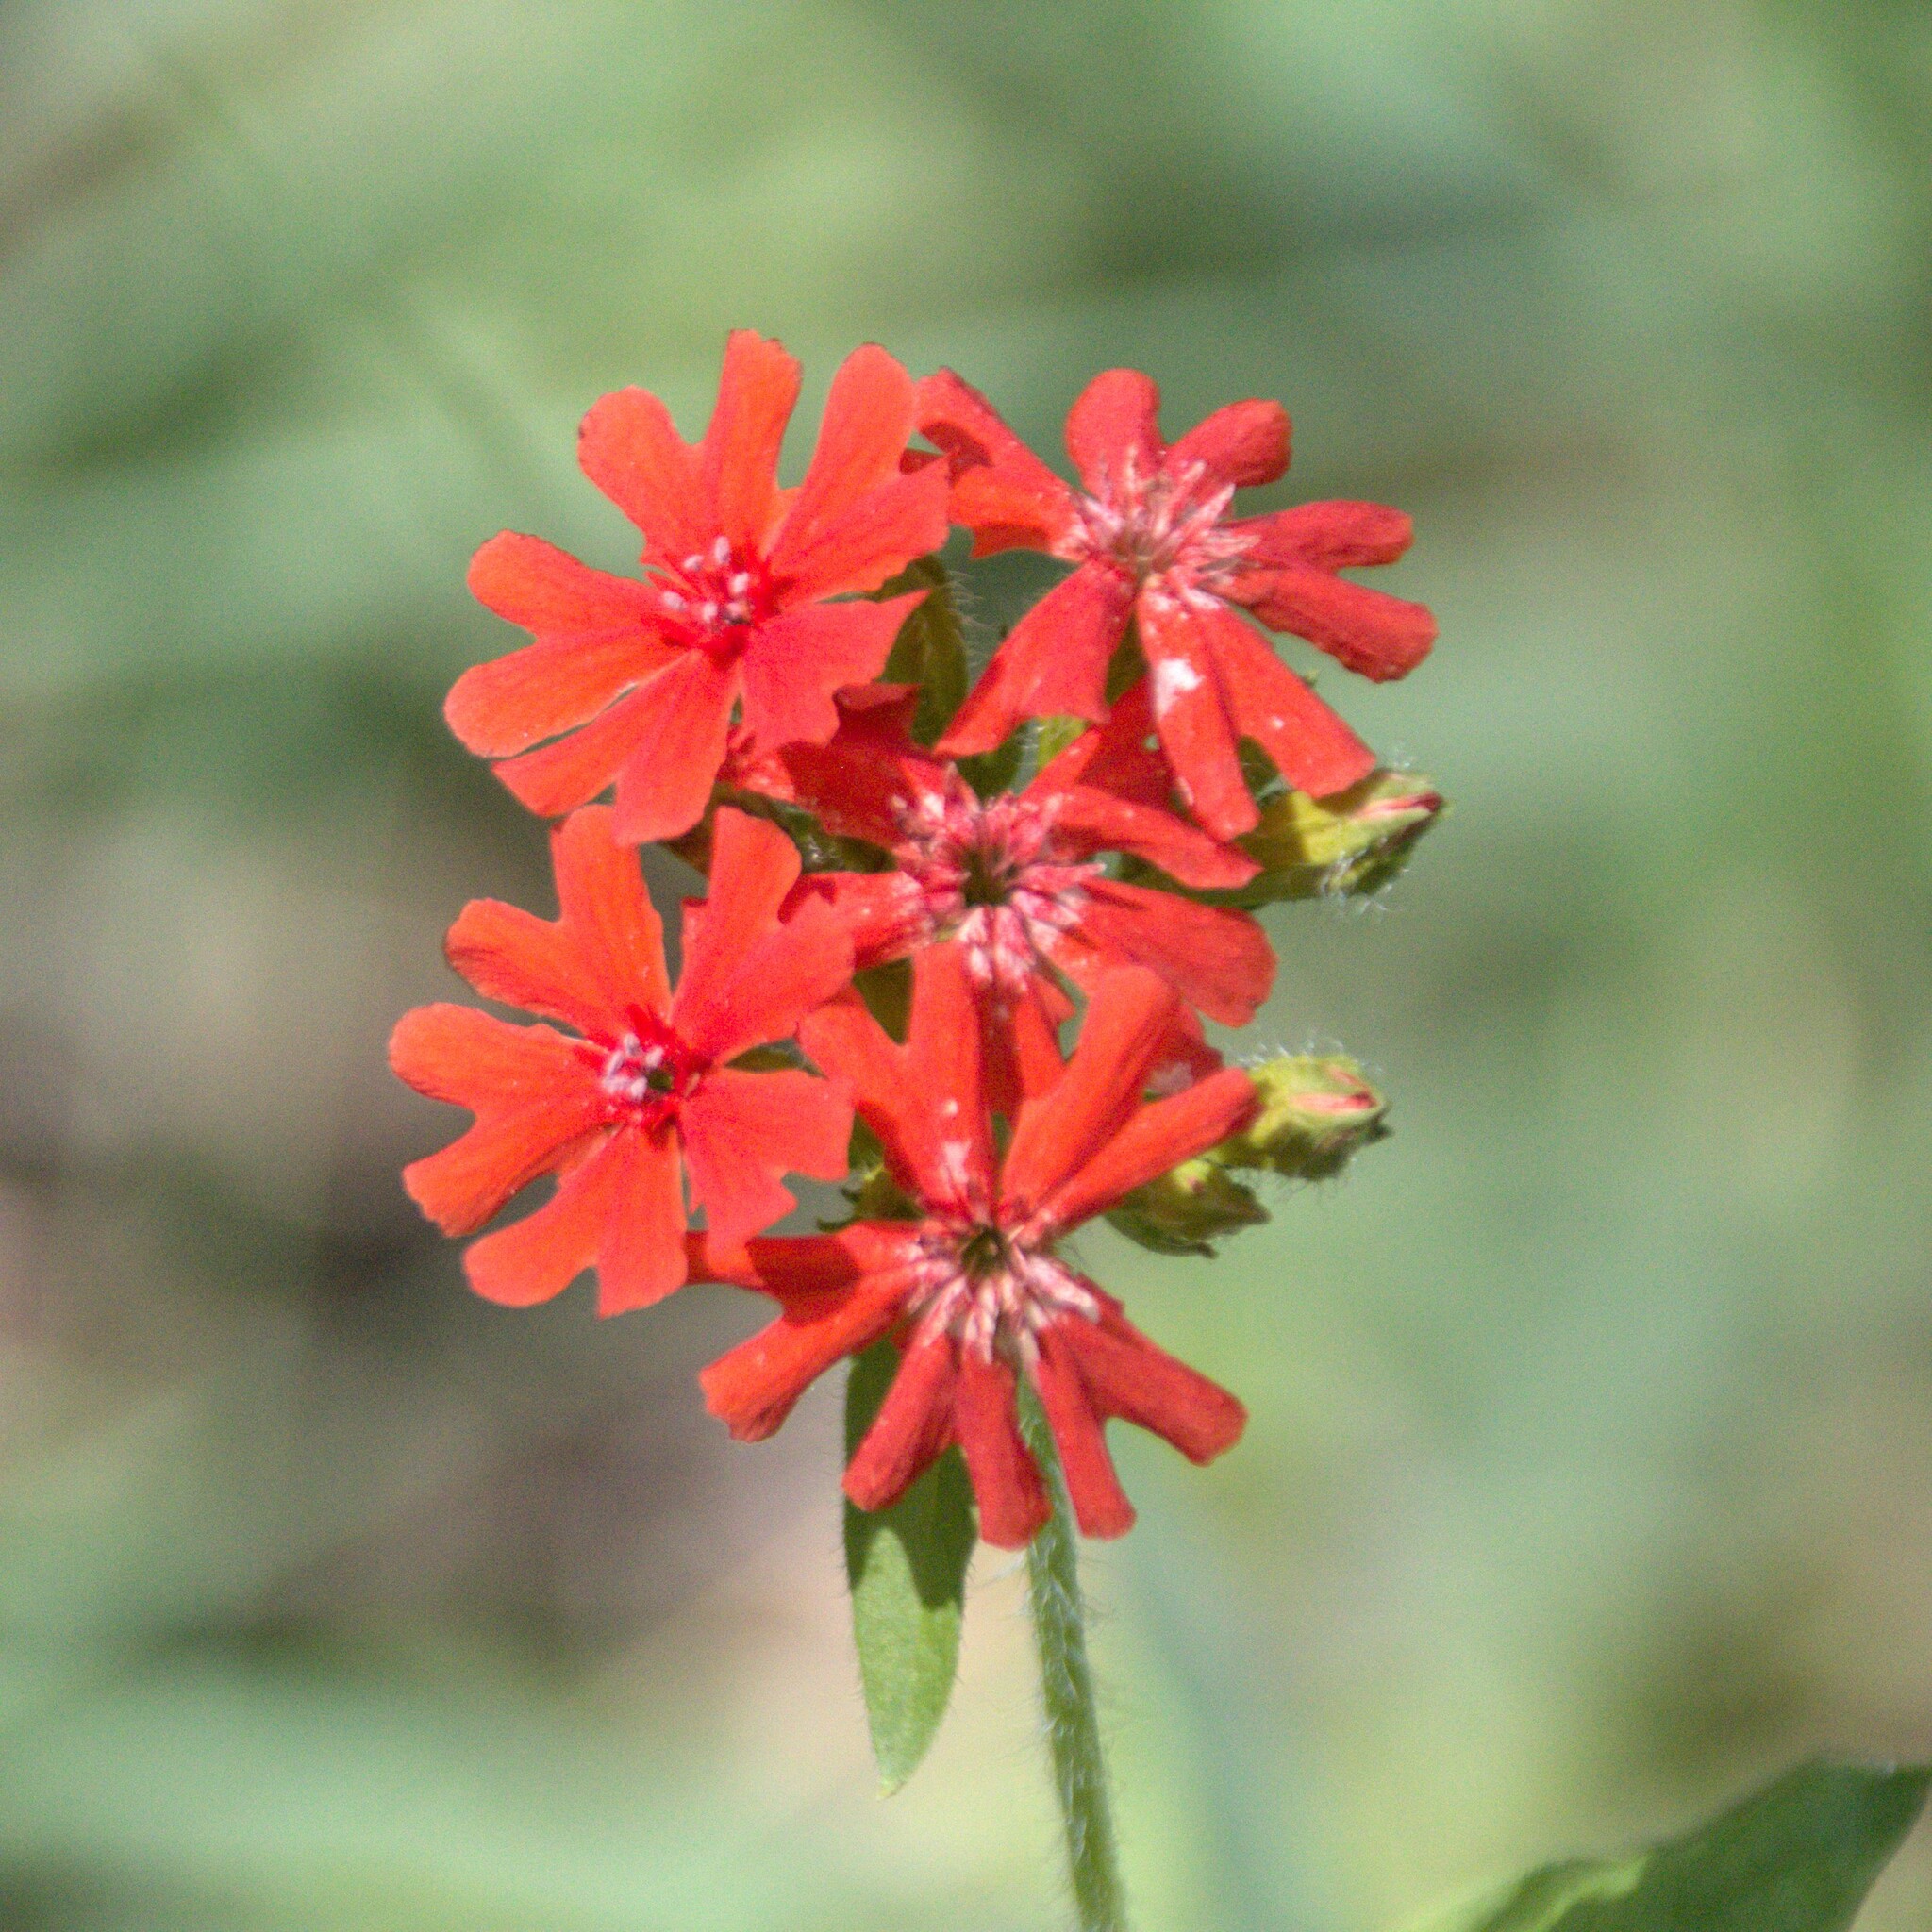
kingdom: Plantae
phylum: Tracheophyta
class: Magnoliopsida
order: Caryophyllales
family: Caryophyllaceae
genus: Silene
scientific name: Silene chalcedonica
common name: Maltese-cross
